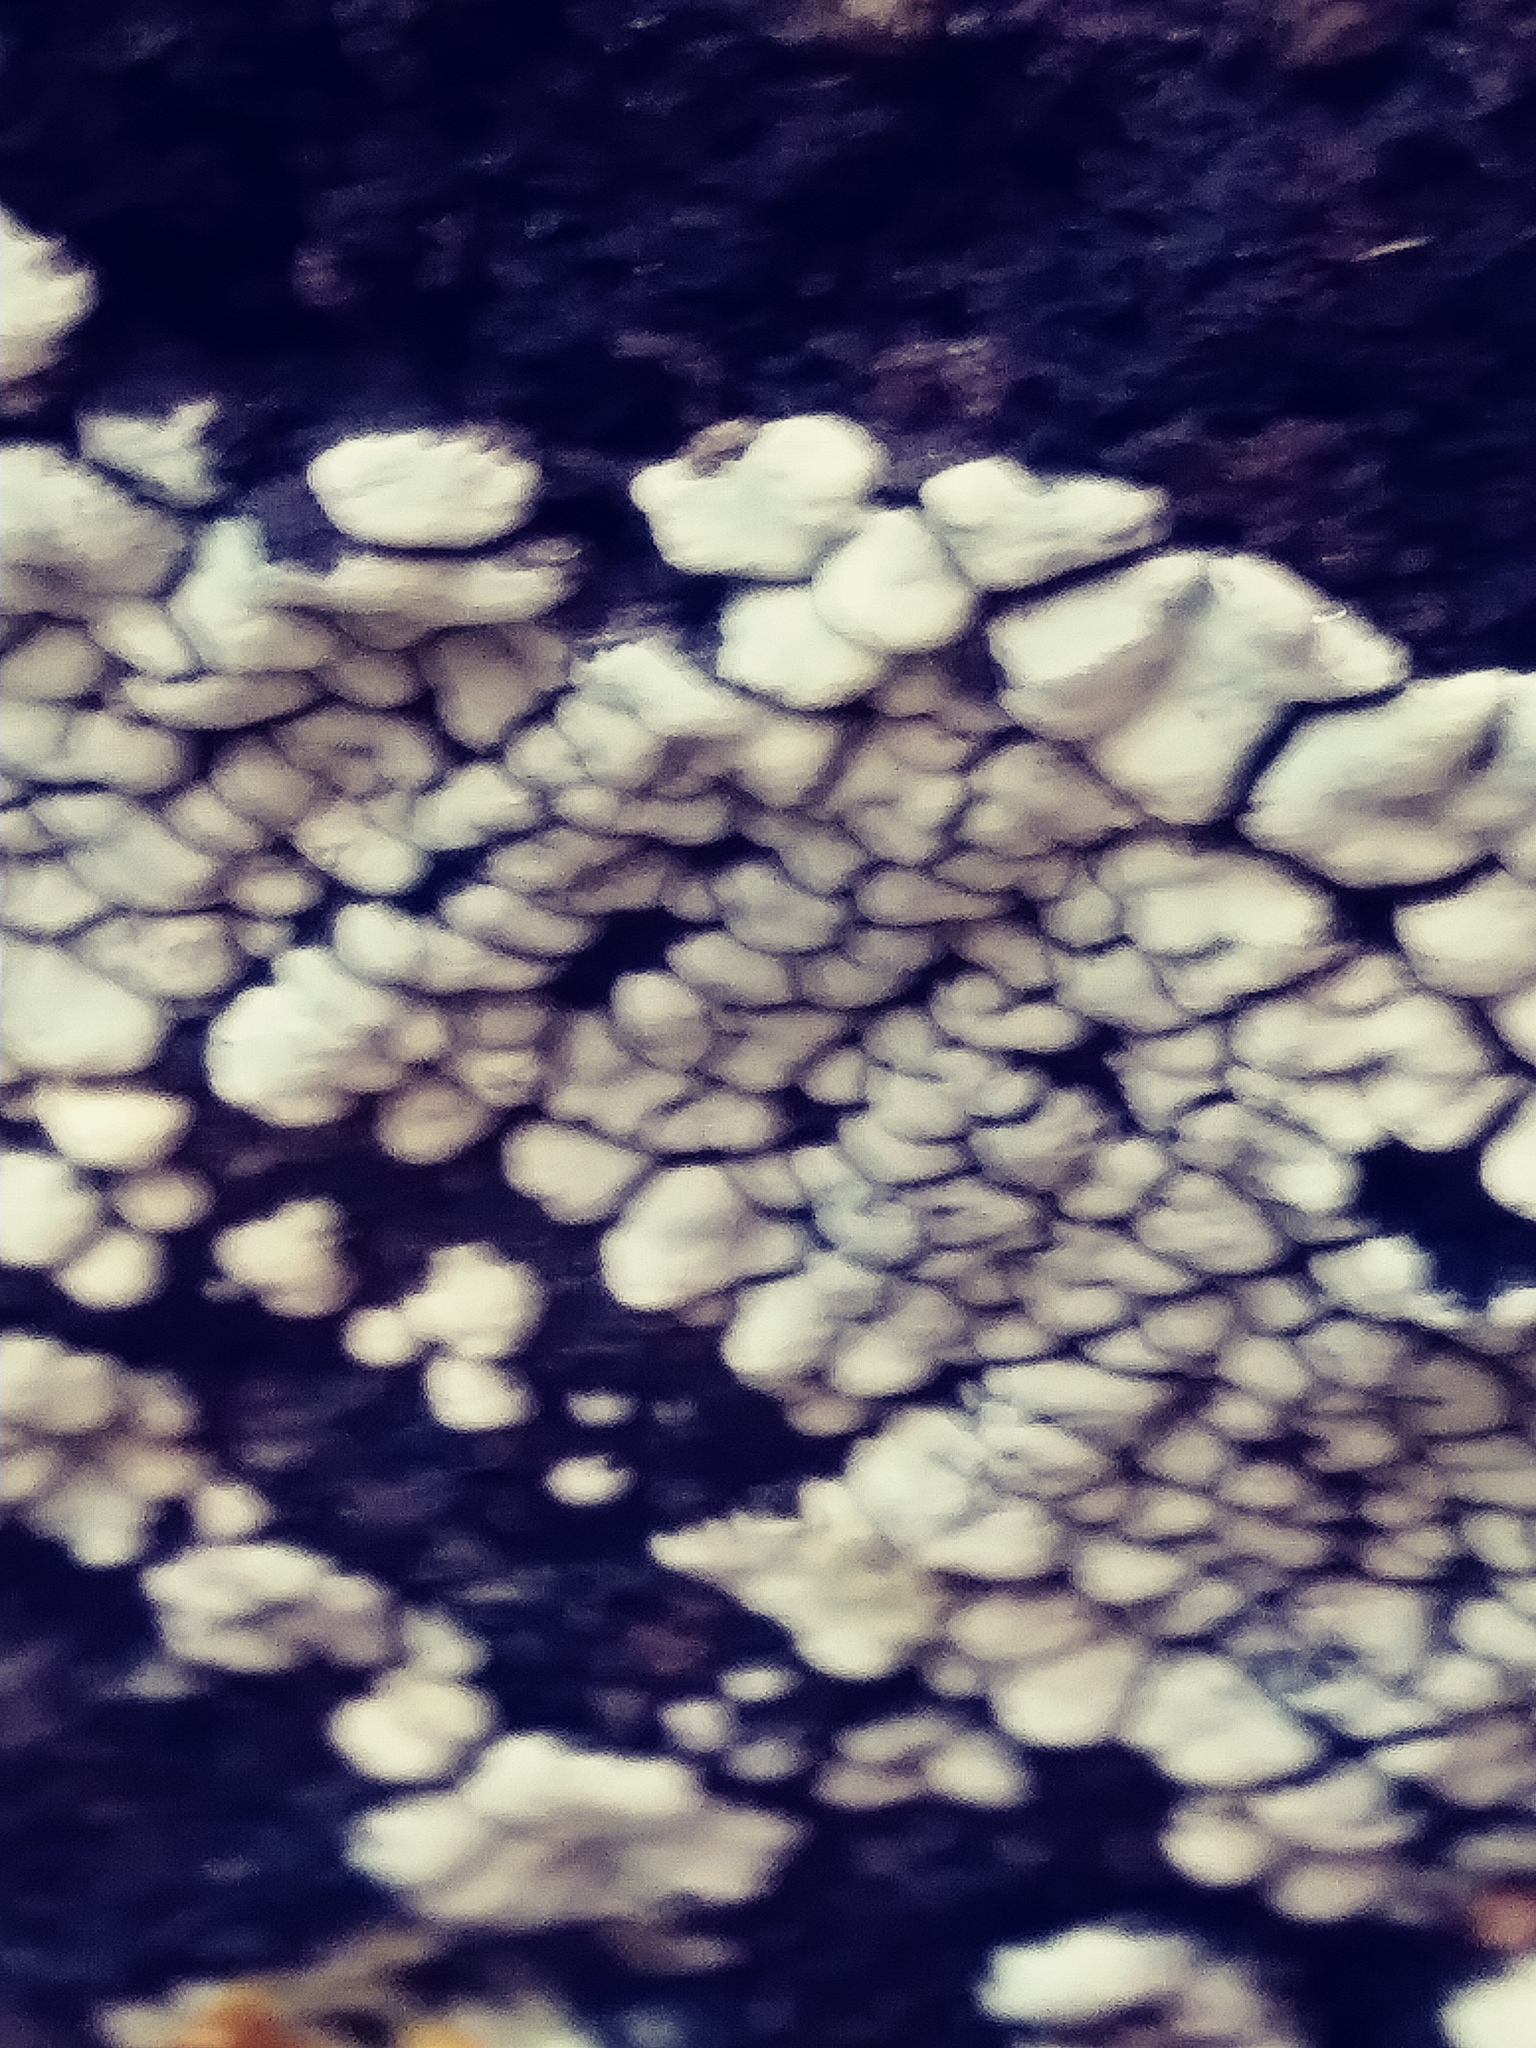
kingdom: Fungi
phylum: Basidiomycota
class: Agaricomycetes
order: Russulales
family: Stereaceae
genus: Xylobolus
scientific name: Xylobolus frustulatus
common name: Ceramic parchment
